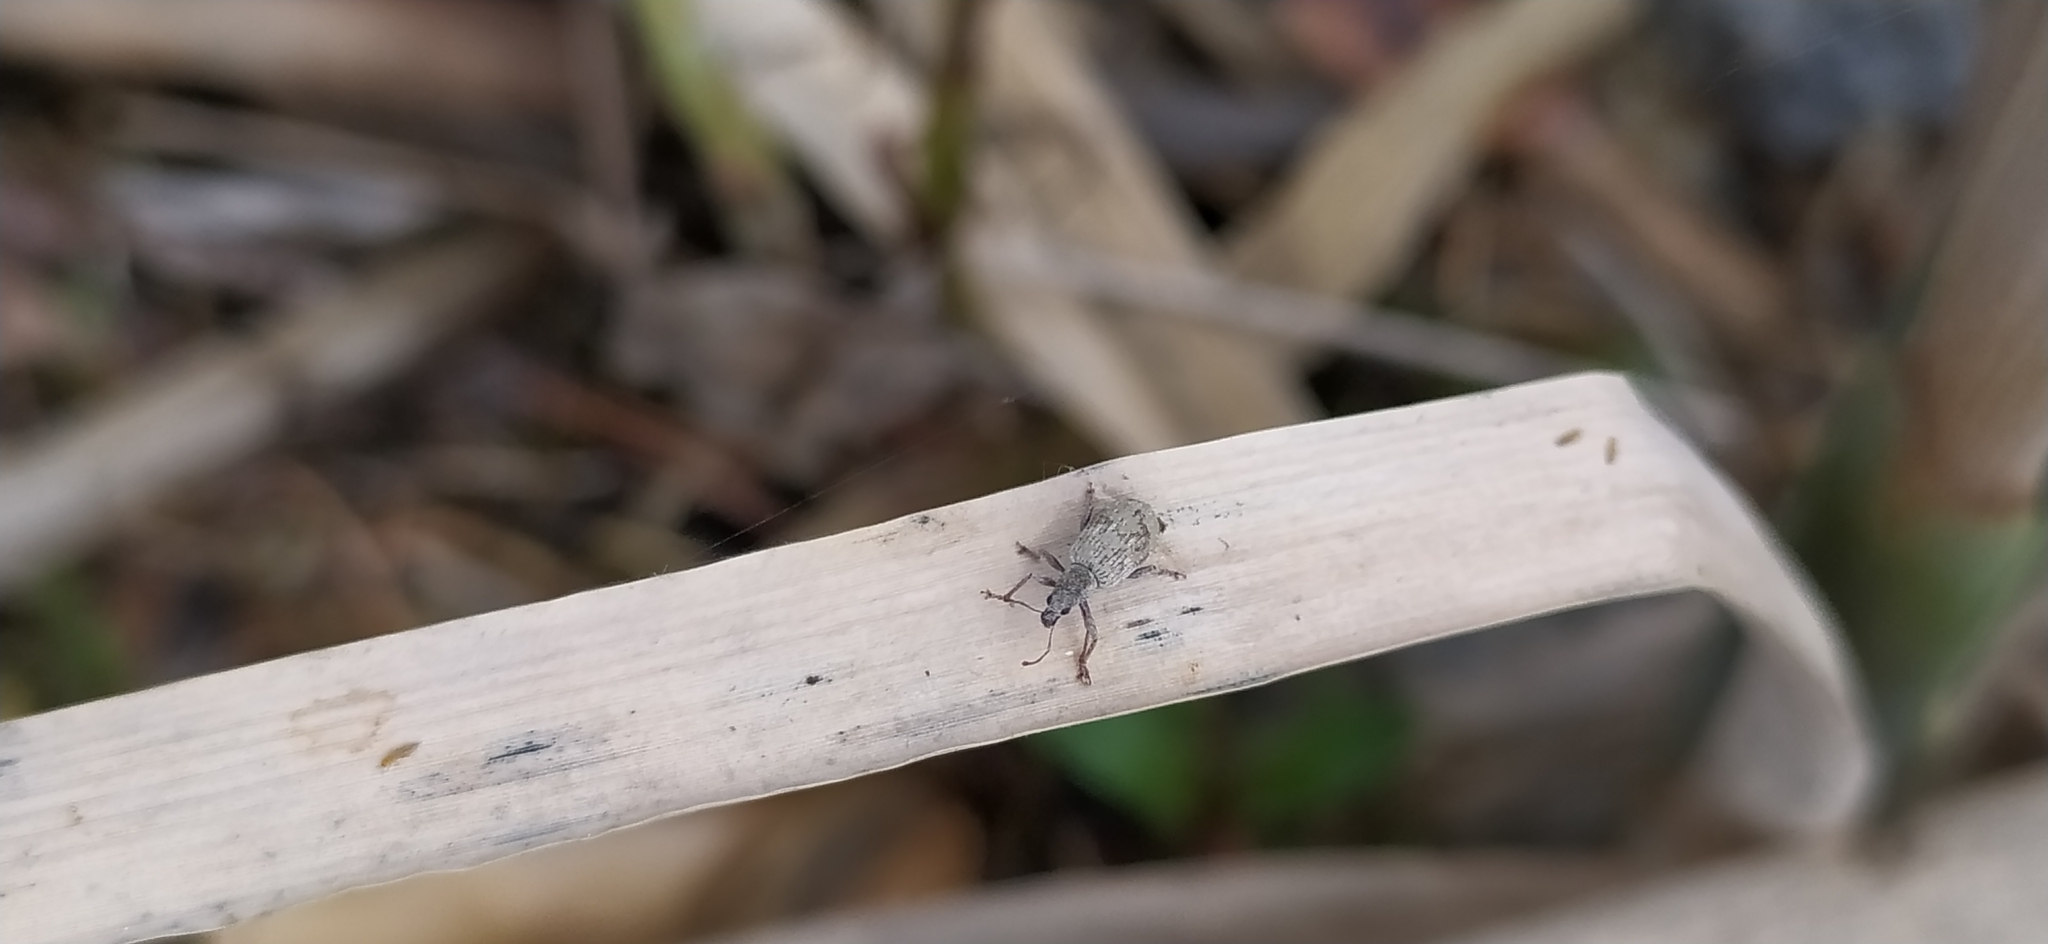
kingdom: Animalia
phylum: Arthropoda
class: Insecta
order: Coleoptera
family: Curculionidae
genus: Polydrusus
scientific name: Polydrusus tereticollis
